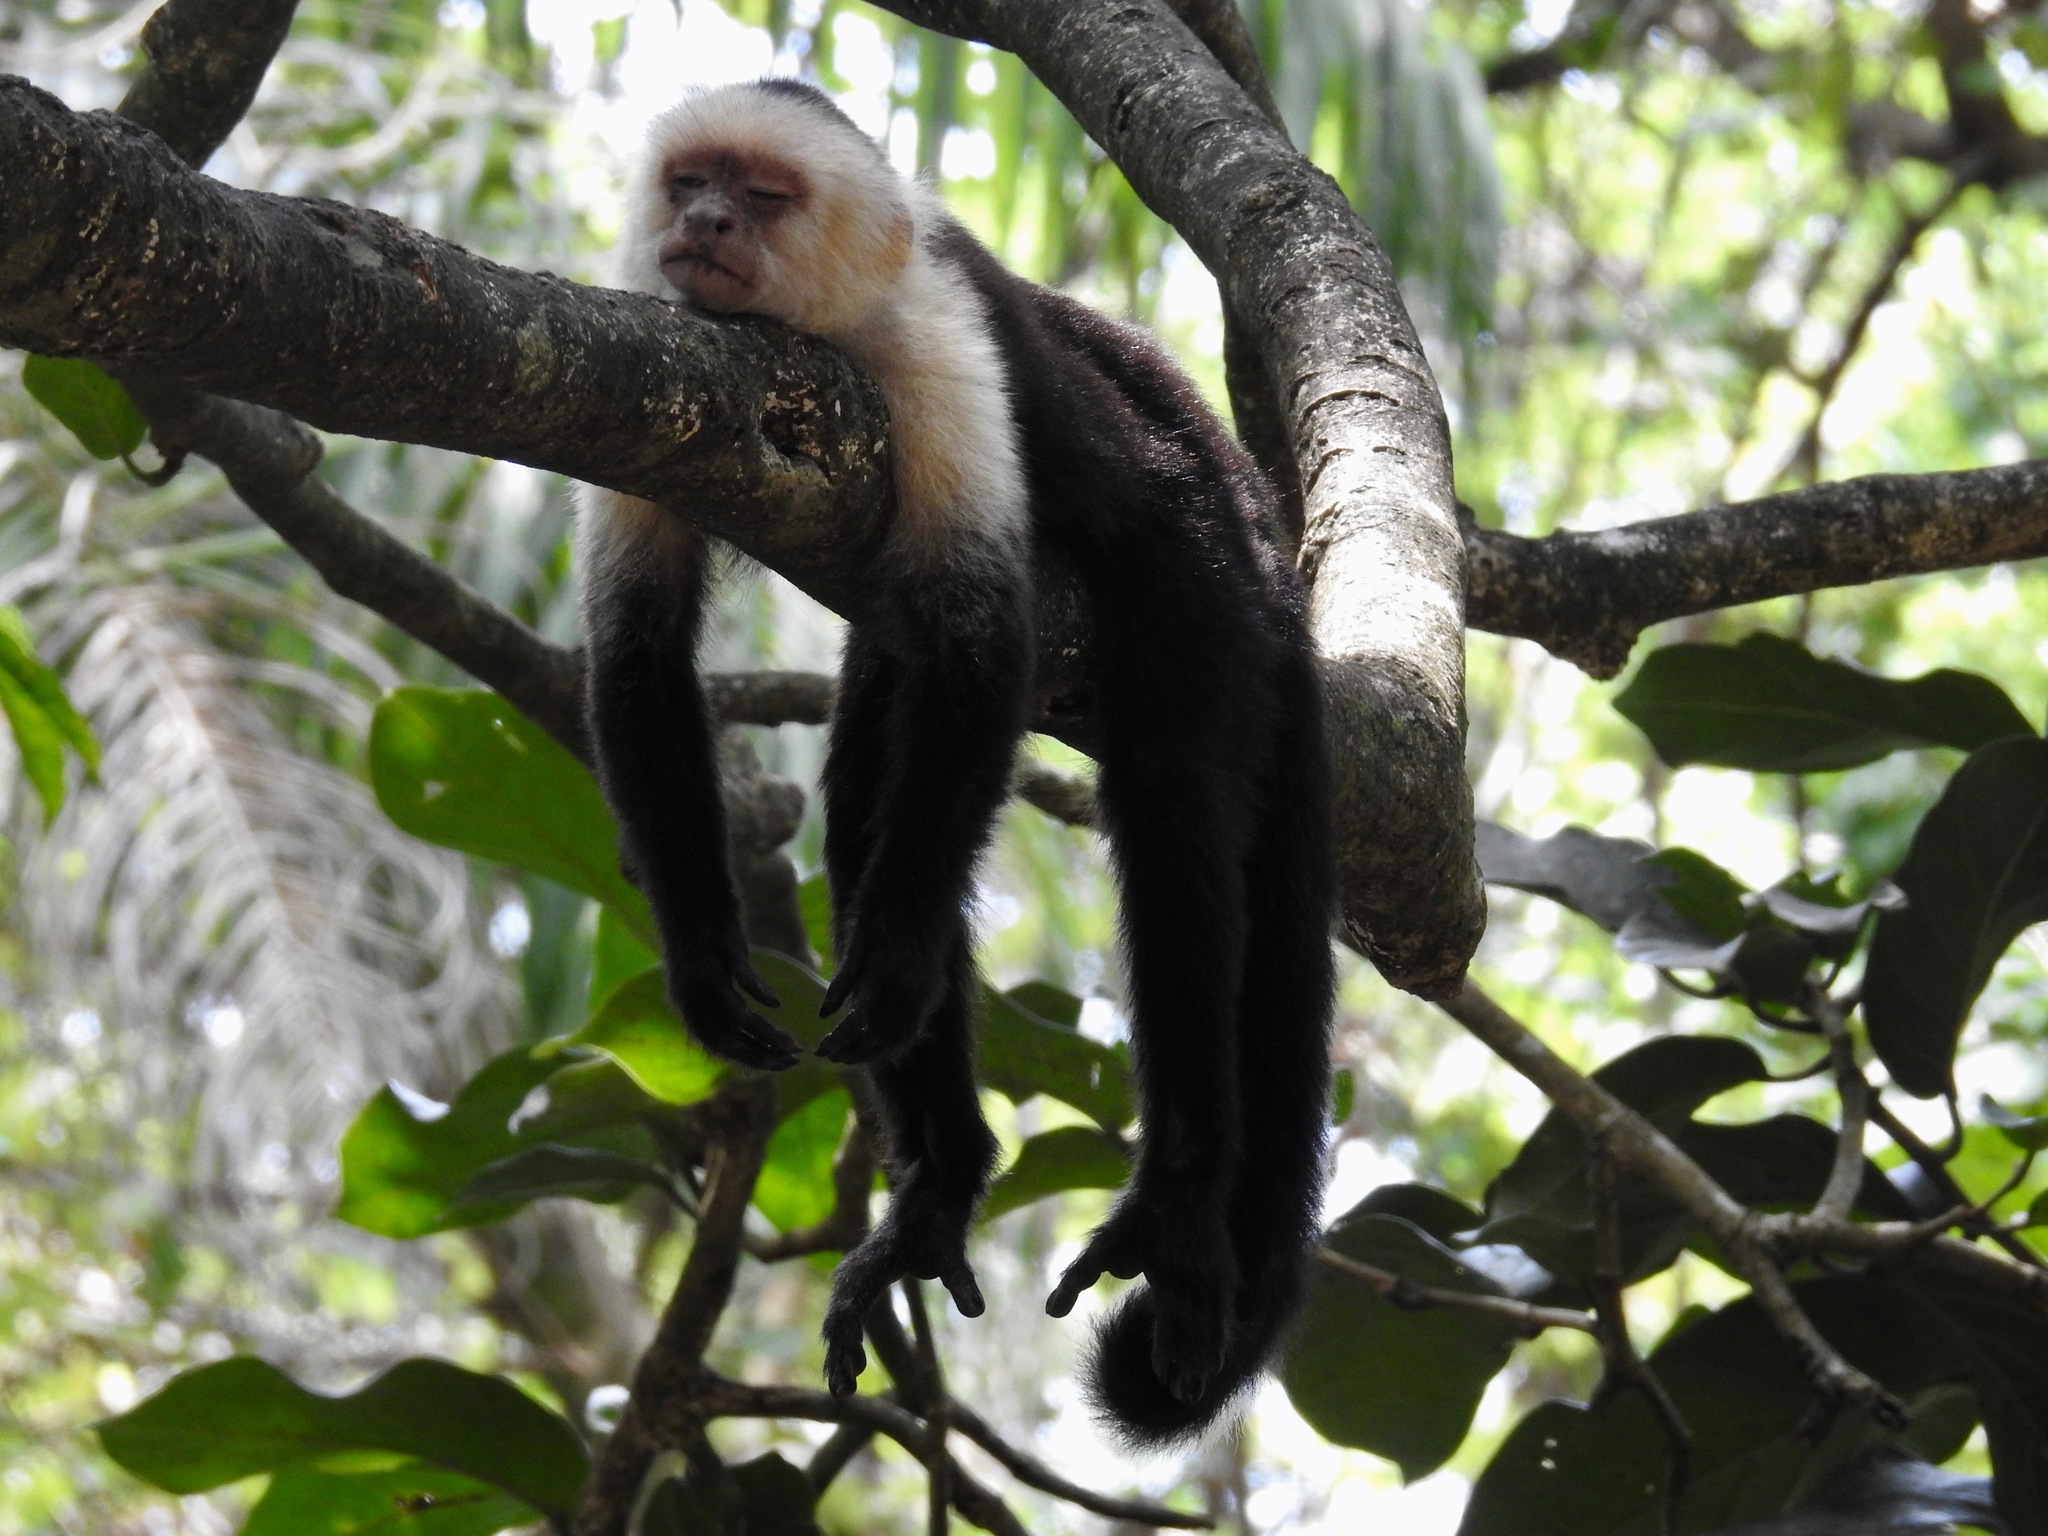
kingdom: Animalia
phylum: Chordata
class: Mammalia
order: Primates
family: Cebidae
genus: Cebus
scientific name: Cebus imitator
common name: Panamanian white-faced capuchin
